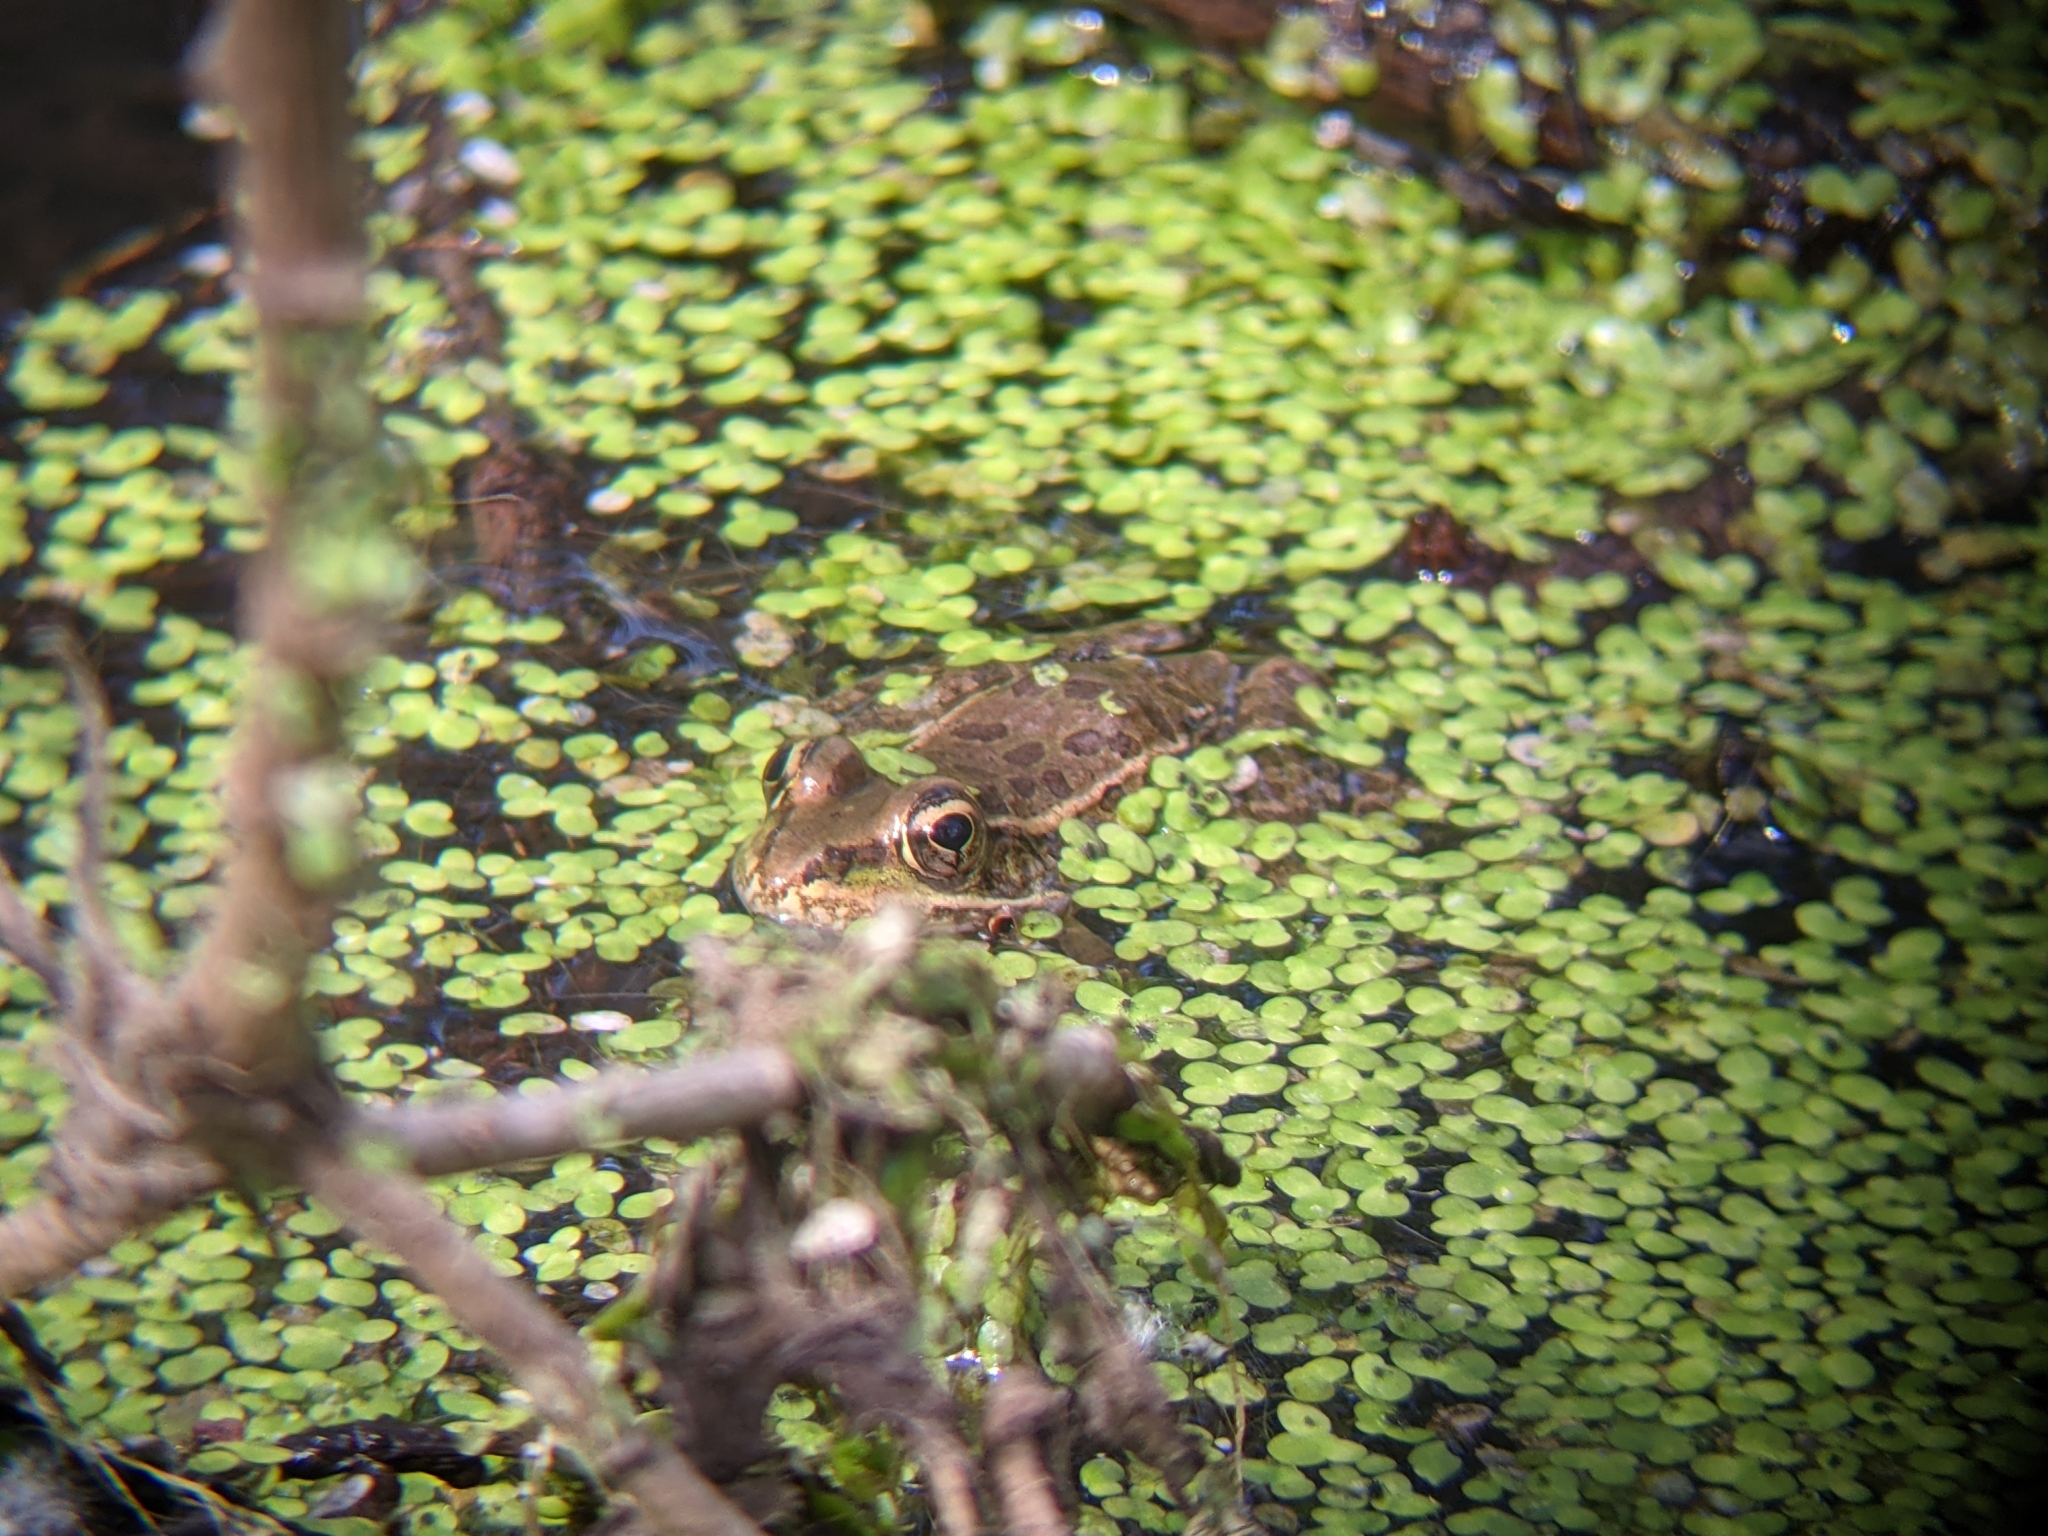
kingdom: Animalia
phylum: Chordata
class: Amphibia
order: Anura
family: Ranidae
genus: Lithobates
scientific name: Lithobates yavapaiensis
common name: Lowland leopard frog
